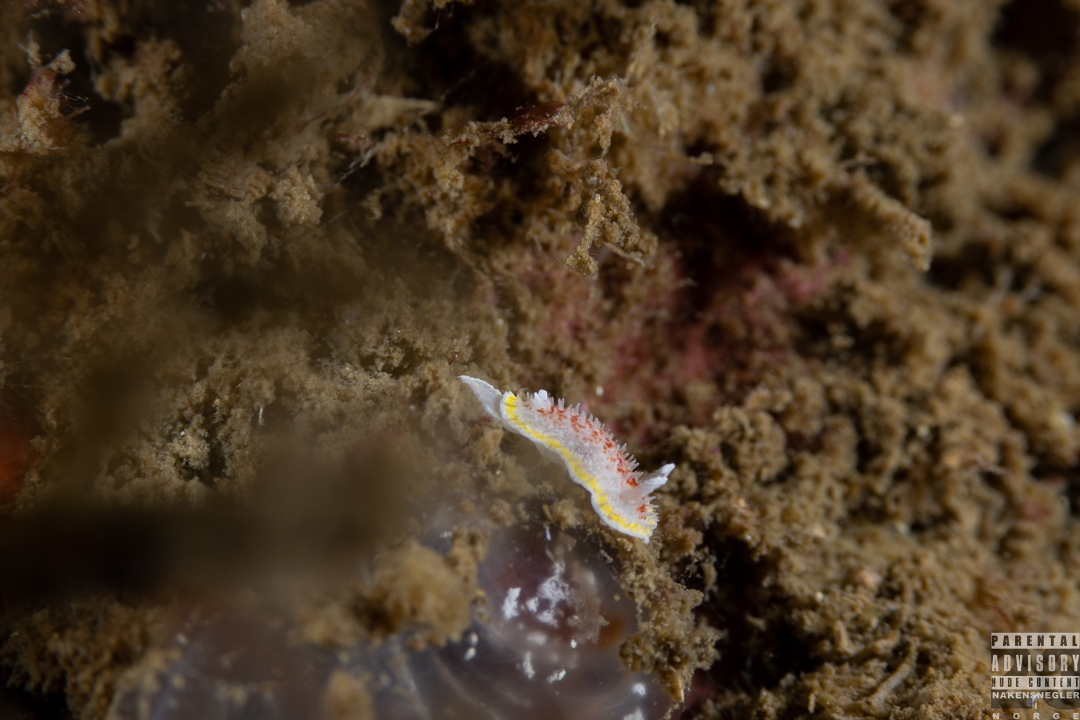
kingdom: Animalia
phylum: Mollusca
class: Gastropoda
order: Nudibranchia
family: Calycidorididae
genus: Diaphorodoris
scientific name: Diaphorodoris luteocincta
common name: Fried egg nudibranch
